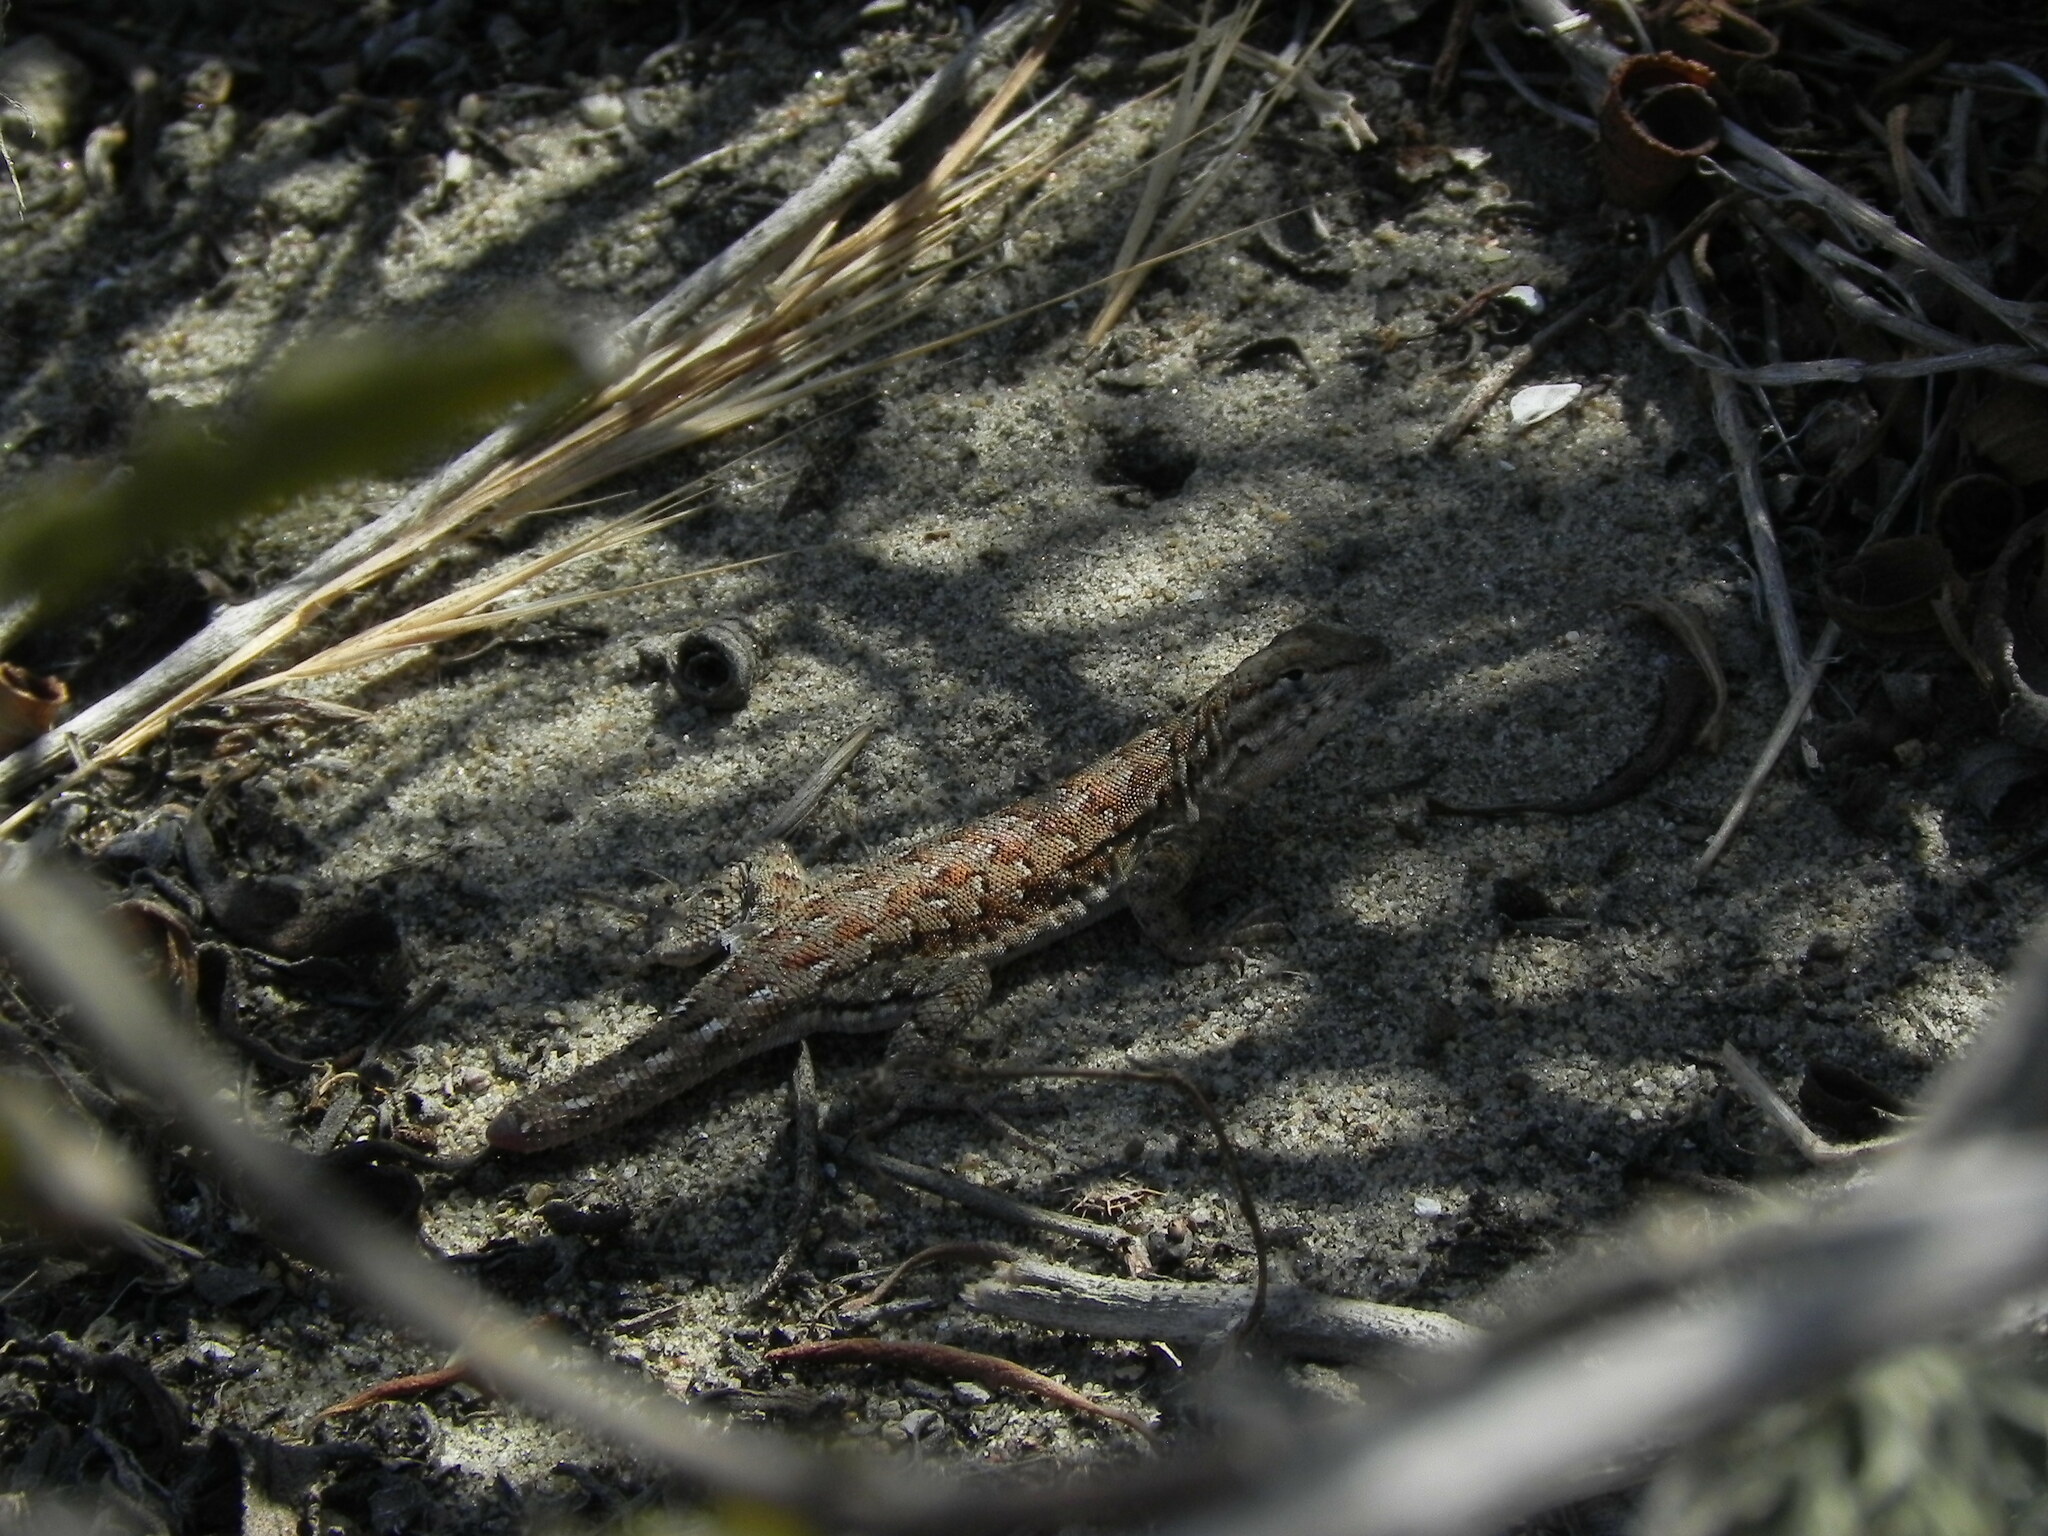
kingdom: Animalia
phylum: Chordata
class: Squamata
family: Phrynosomatidae
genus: Uta
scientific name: Uta stansburiana
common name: Side-blotched lizard
